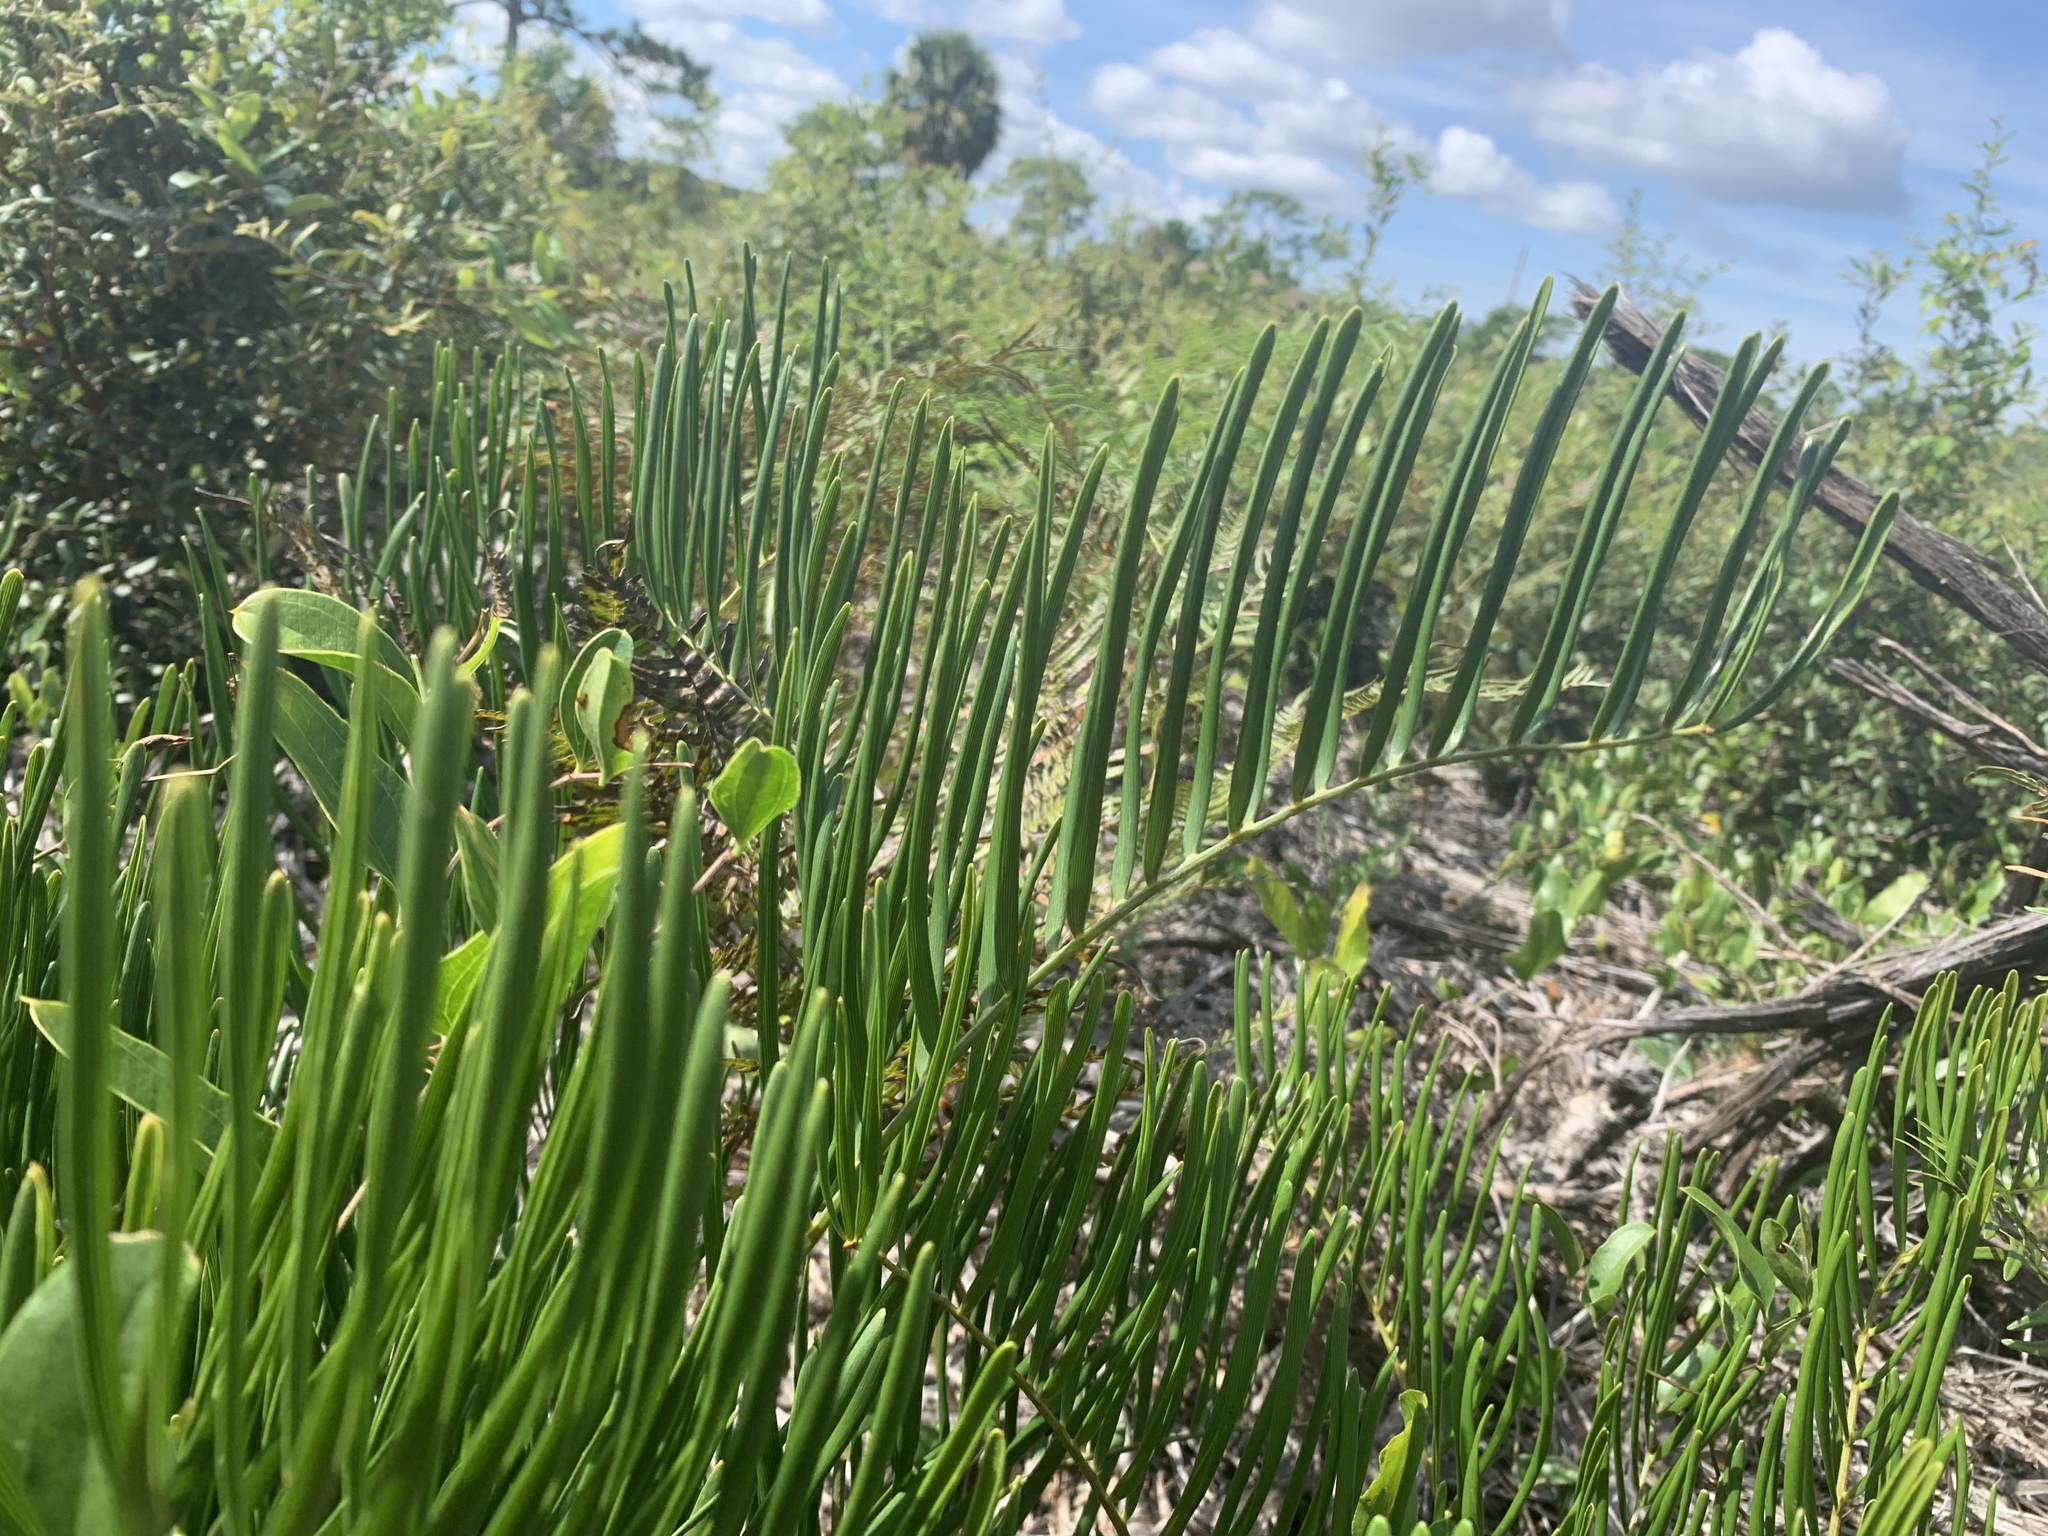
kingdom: Plantae
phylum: Tracheophyta
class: Cycadopsida
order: Cycadales
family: Zamiaceae
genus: Zamia
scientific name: Zamia integrifolia
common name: Florida arrowroot
